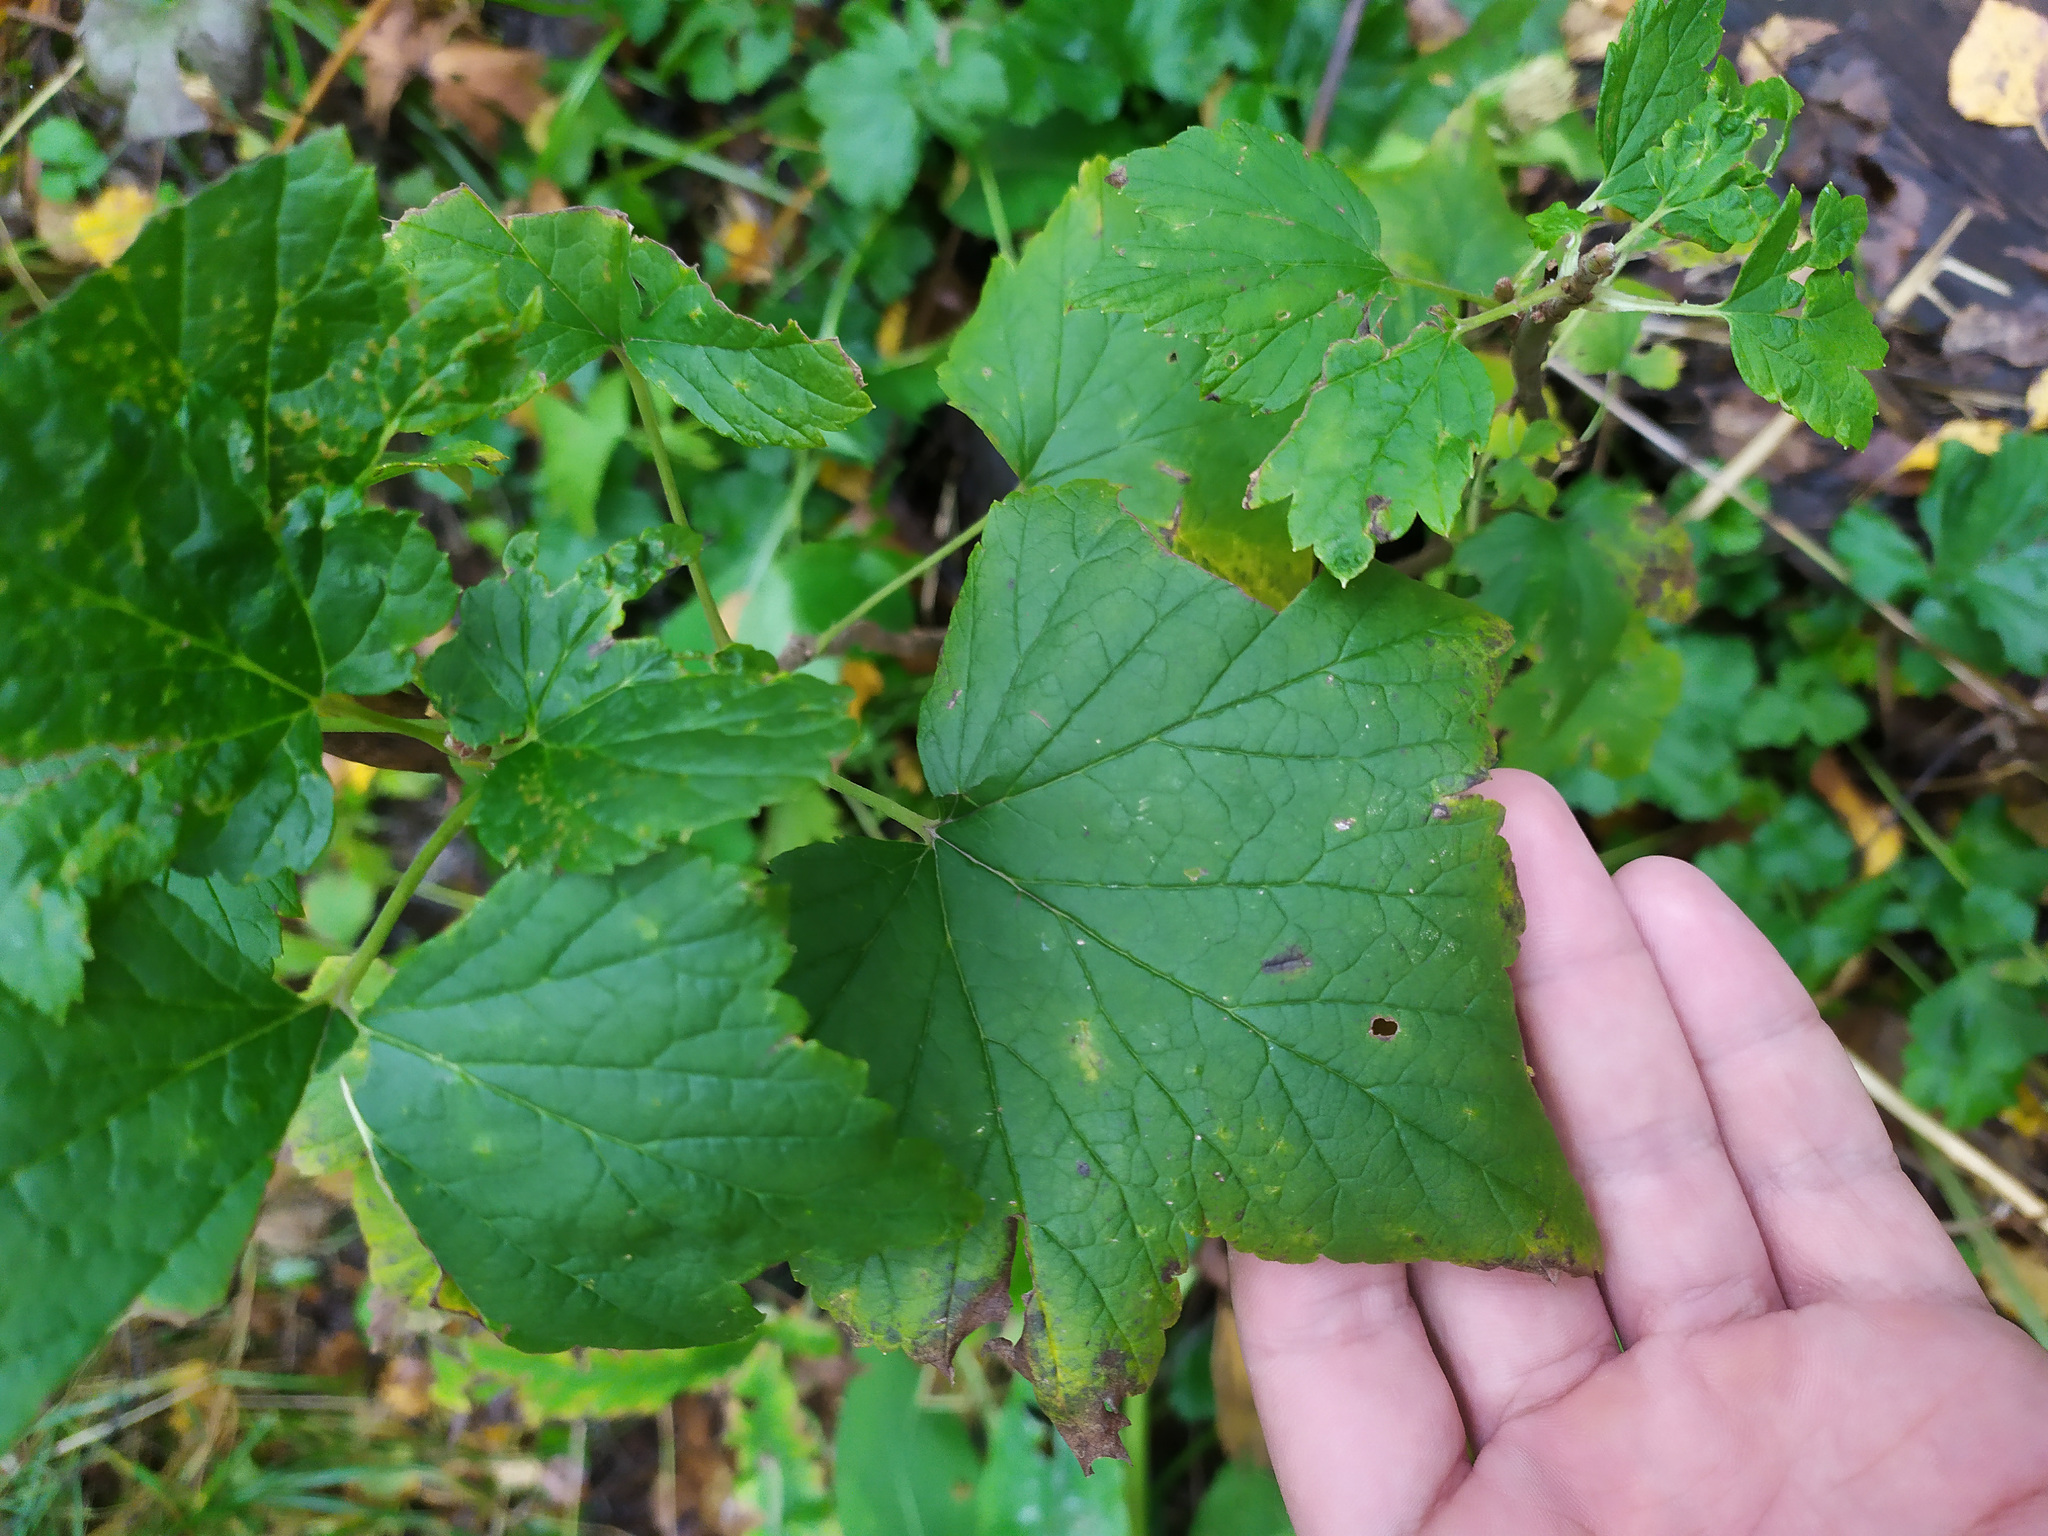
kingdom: Plantae
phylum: Tracheophyta
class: Magnoliopsida
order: Saxifragales
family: Grossulariaceae
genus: Ribes
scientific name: Ribes nigrum
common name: Black currant
